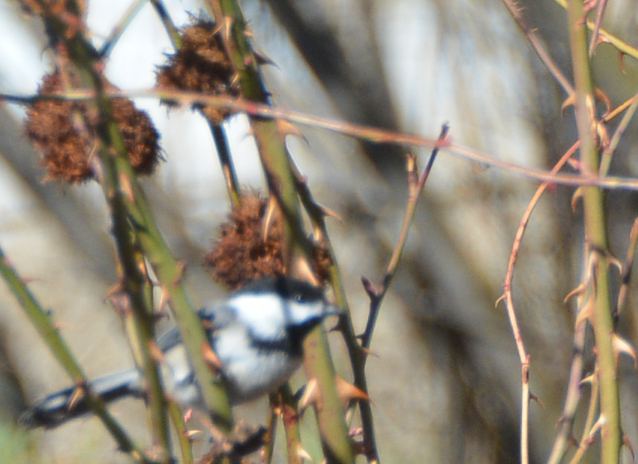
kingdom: Animalia
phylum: Chordata
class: Aves
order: Passeriformes
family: Paridae
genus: Poecile
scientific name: Poecile atricapillus
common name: Black-capped chickadee
